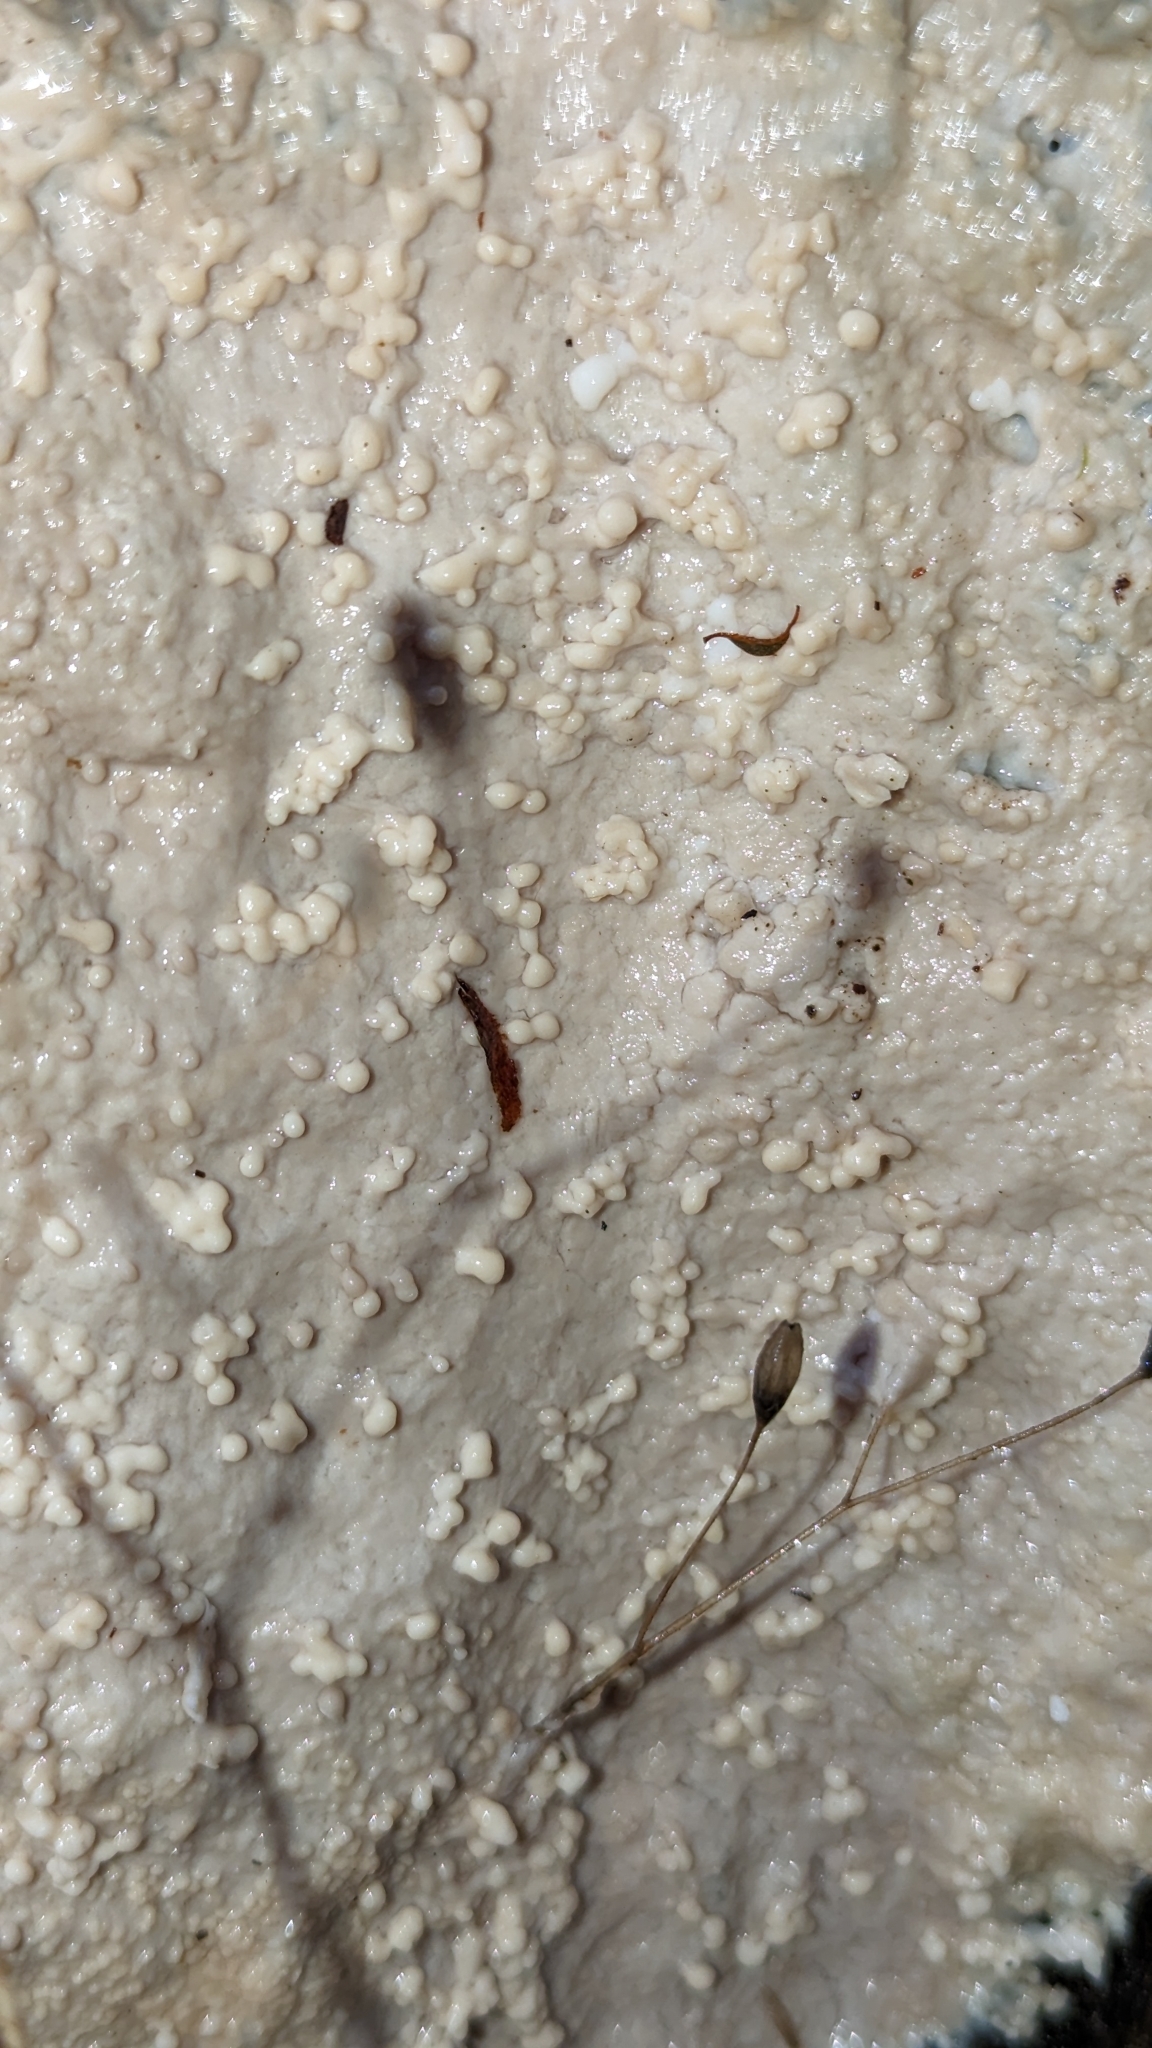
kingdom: Protozoa
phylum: Mycetozoa
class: Myxomycetes
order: Stemonitidales
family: Stemonitidaceae
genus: Brefeldia
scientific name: Brefeldia maxima
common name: Tapioca slime mold
